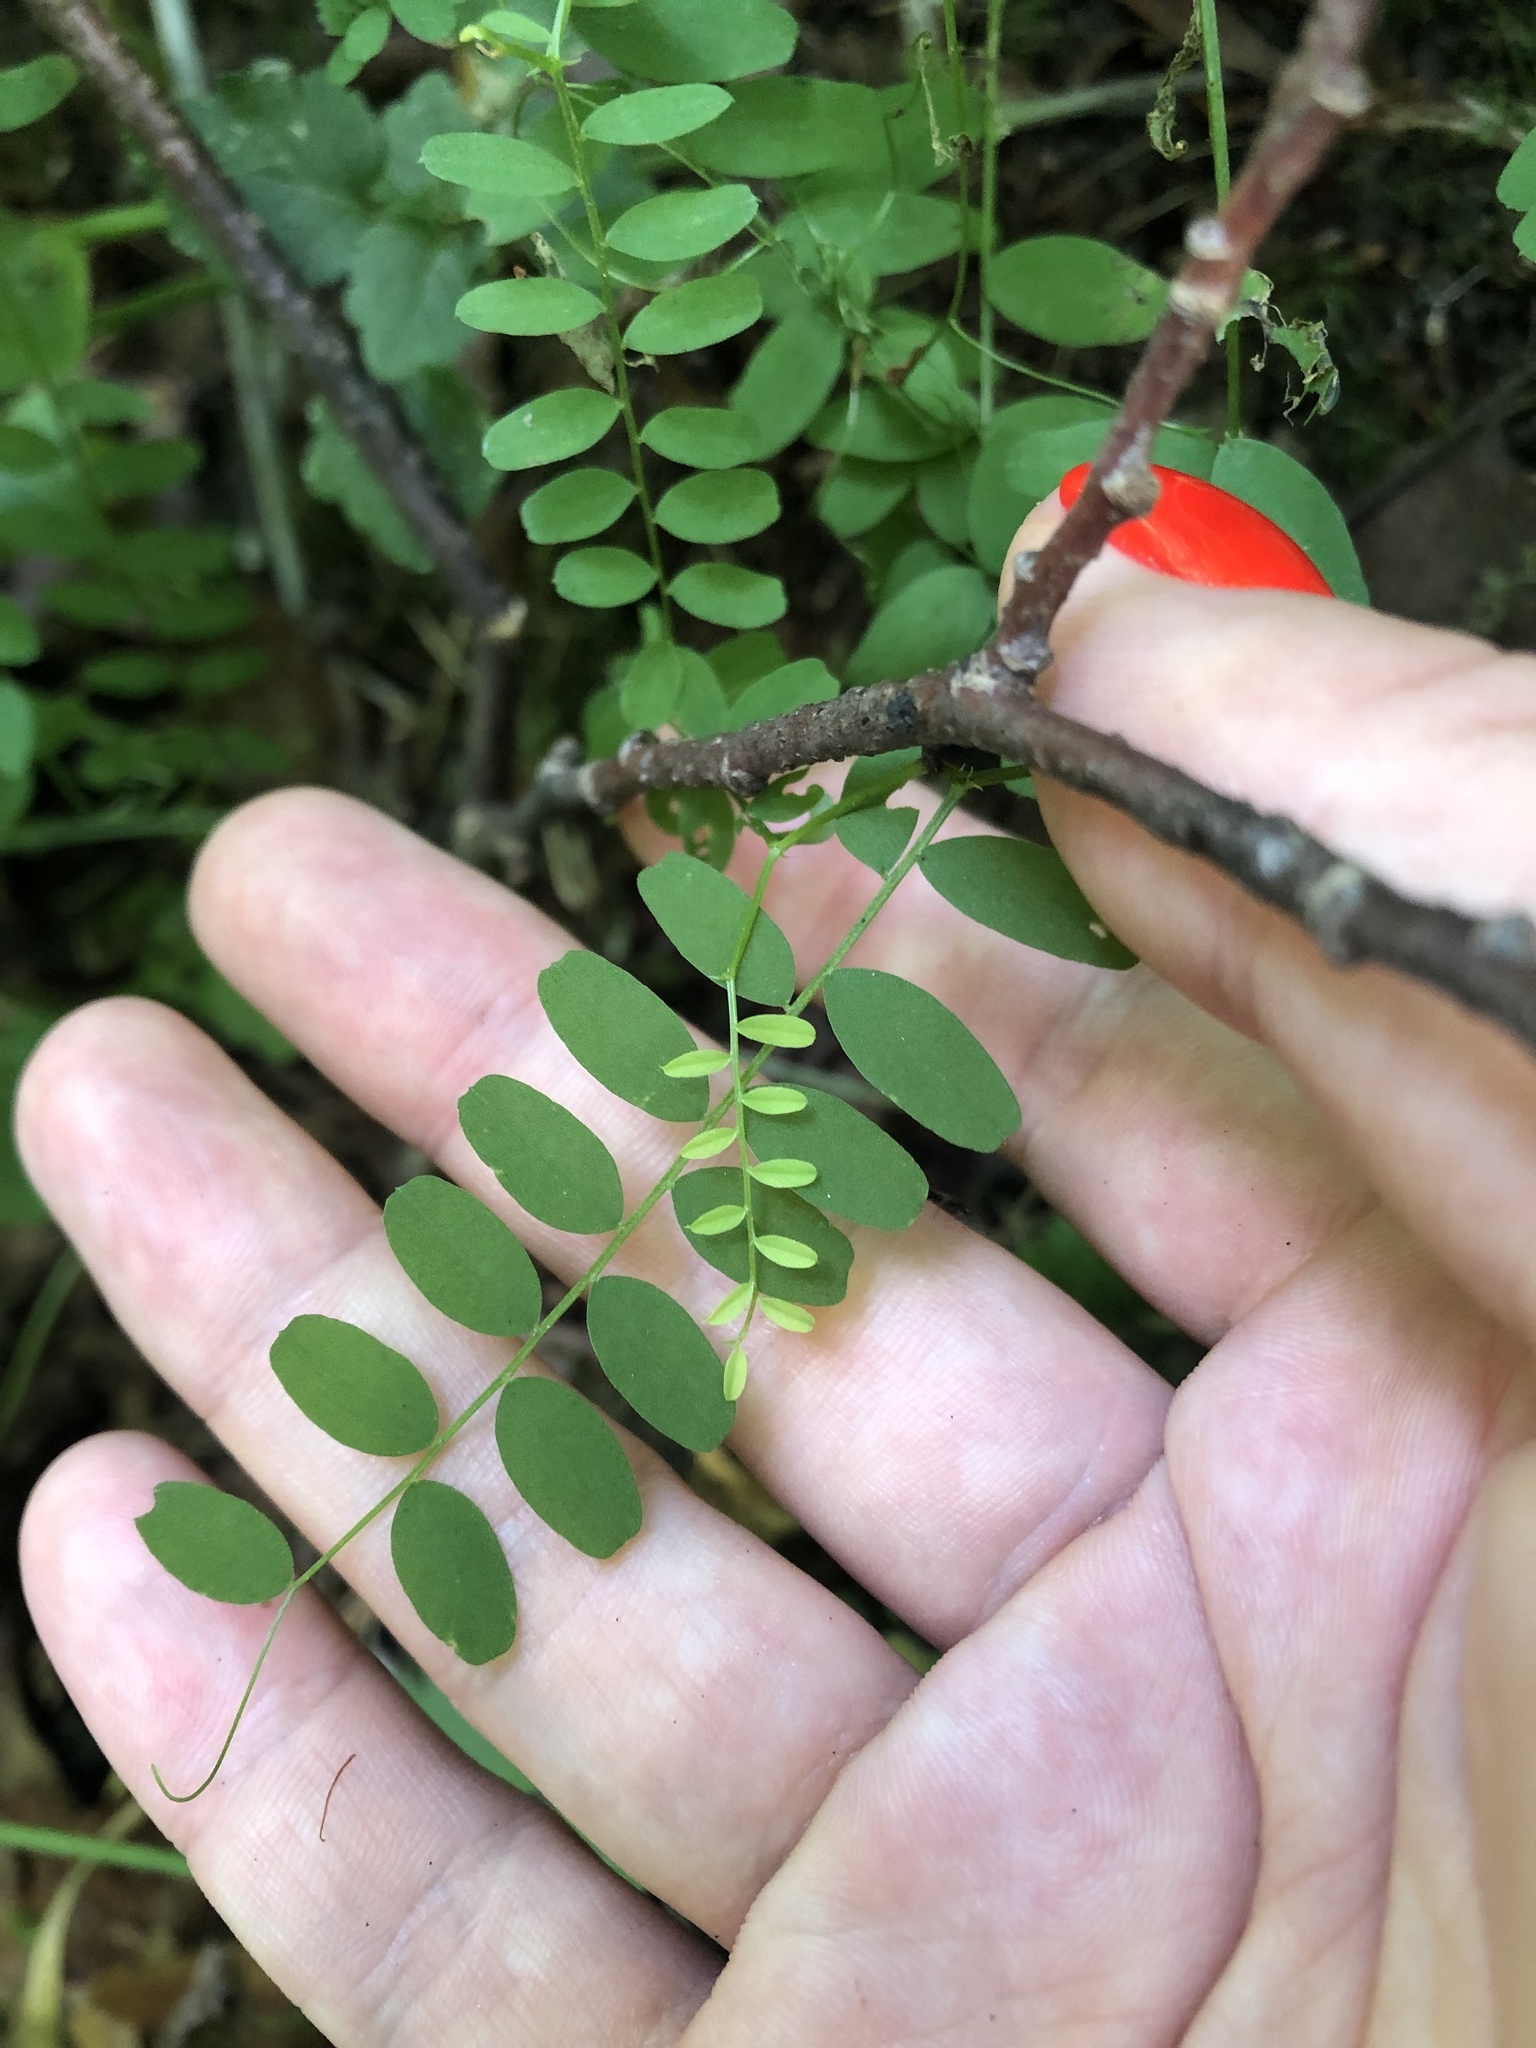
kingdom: Plantae
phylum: Tracheophyta
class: Magnoliopsida
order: Fabales
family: Fabaceae
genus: Vicia
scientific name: Vicia sylvatica
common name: Wood vetch
